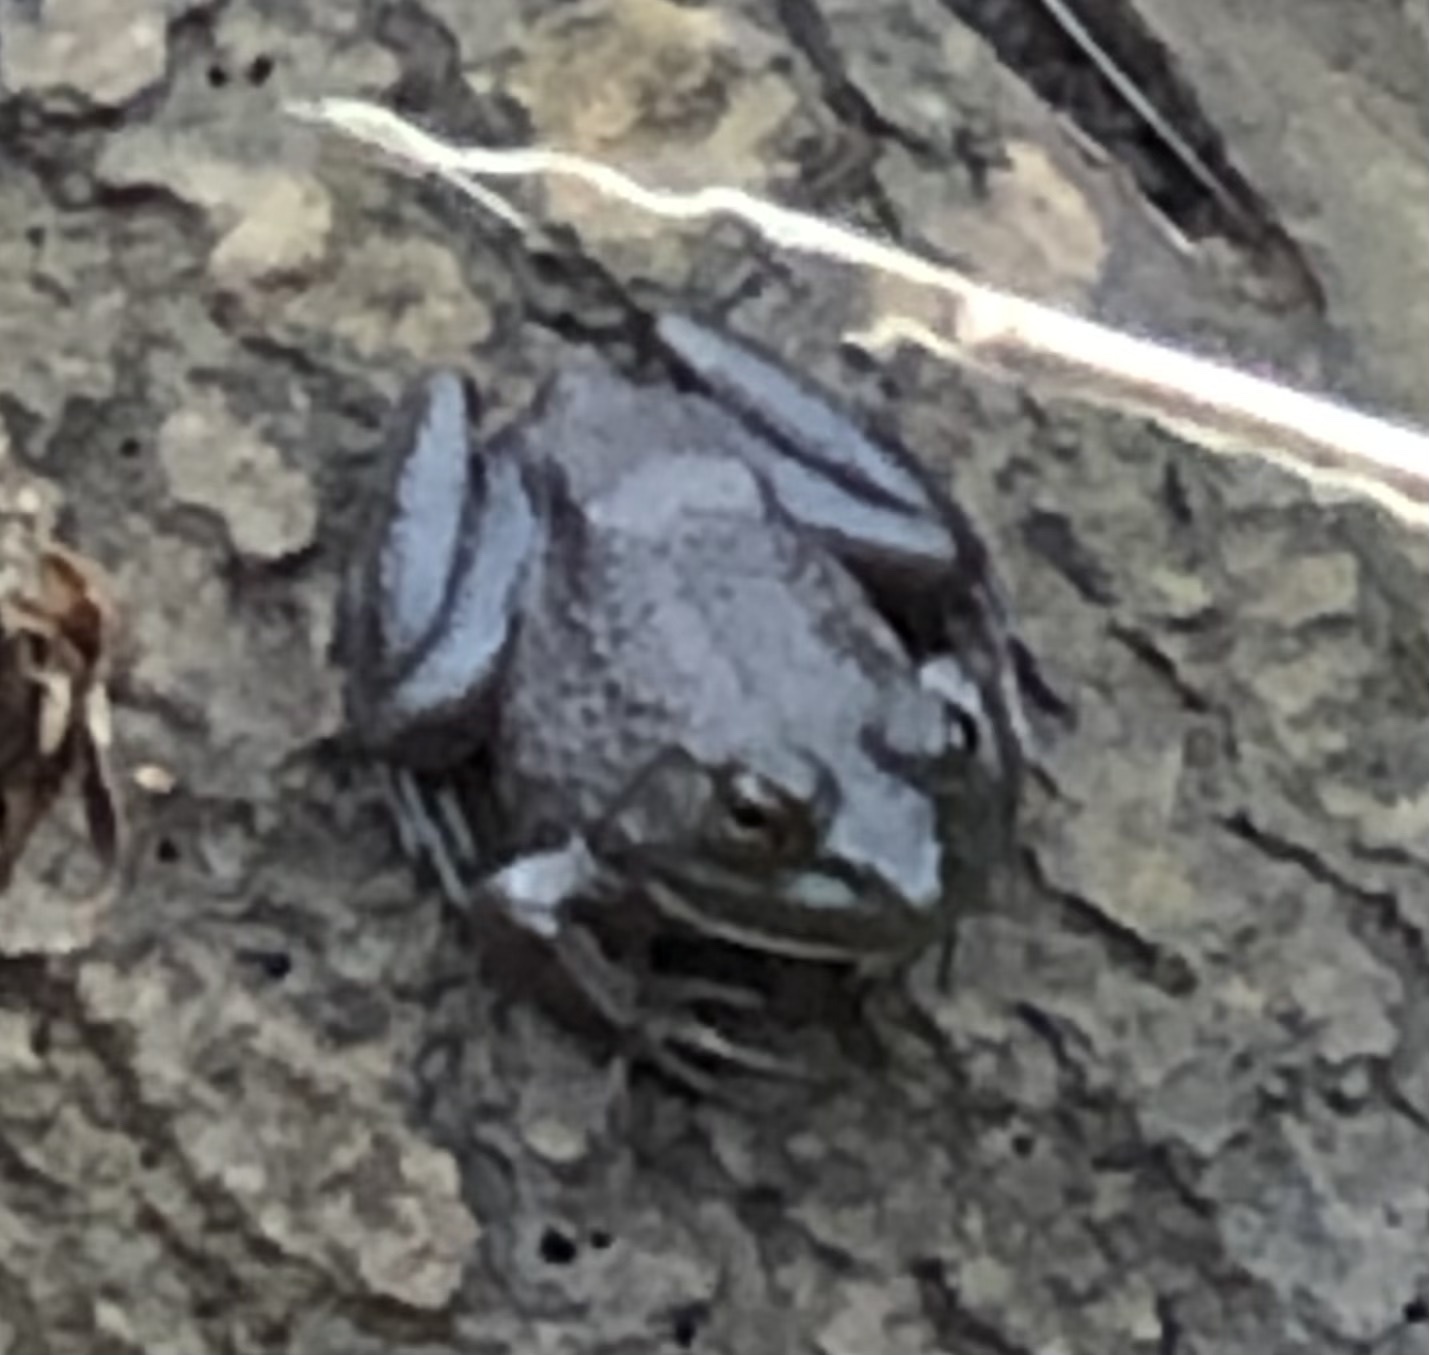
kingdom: Animalia
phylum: Chordata
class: Amphibia
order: Anura
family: Ranidae
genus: Lithobates
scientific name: Lithobates catesbeianus
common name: American bullfrog
